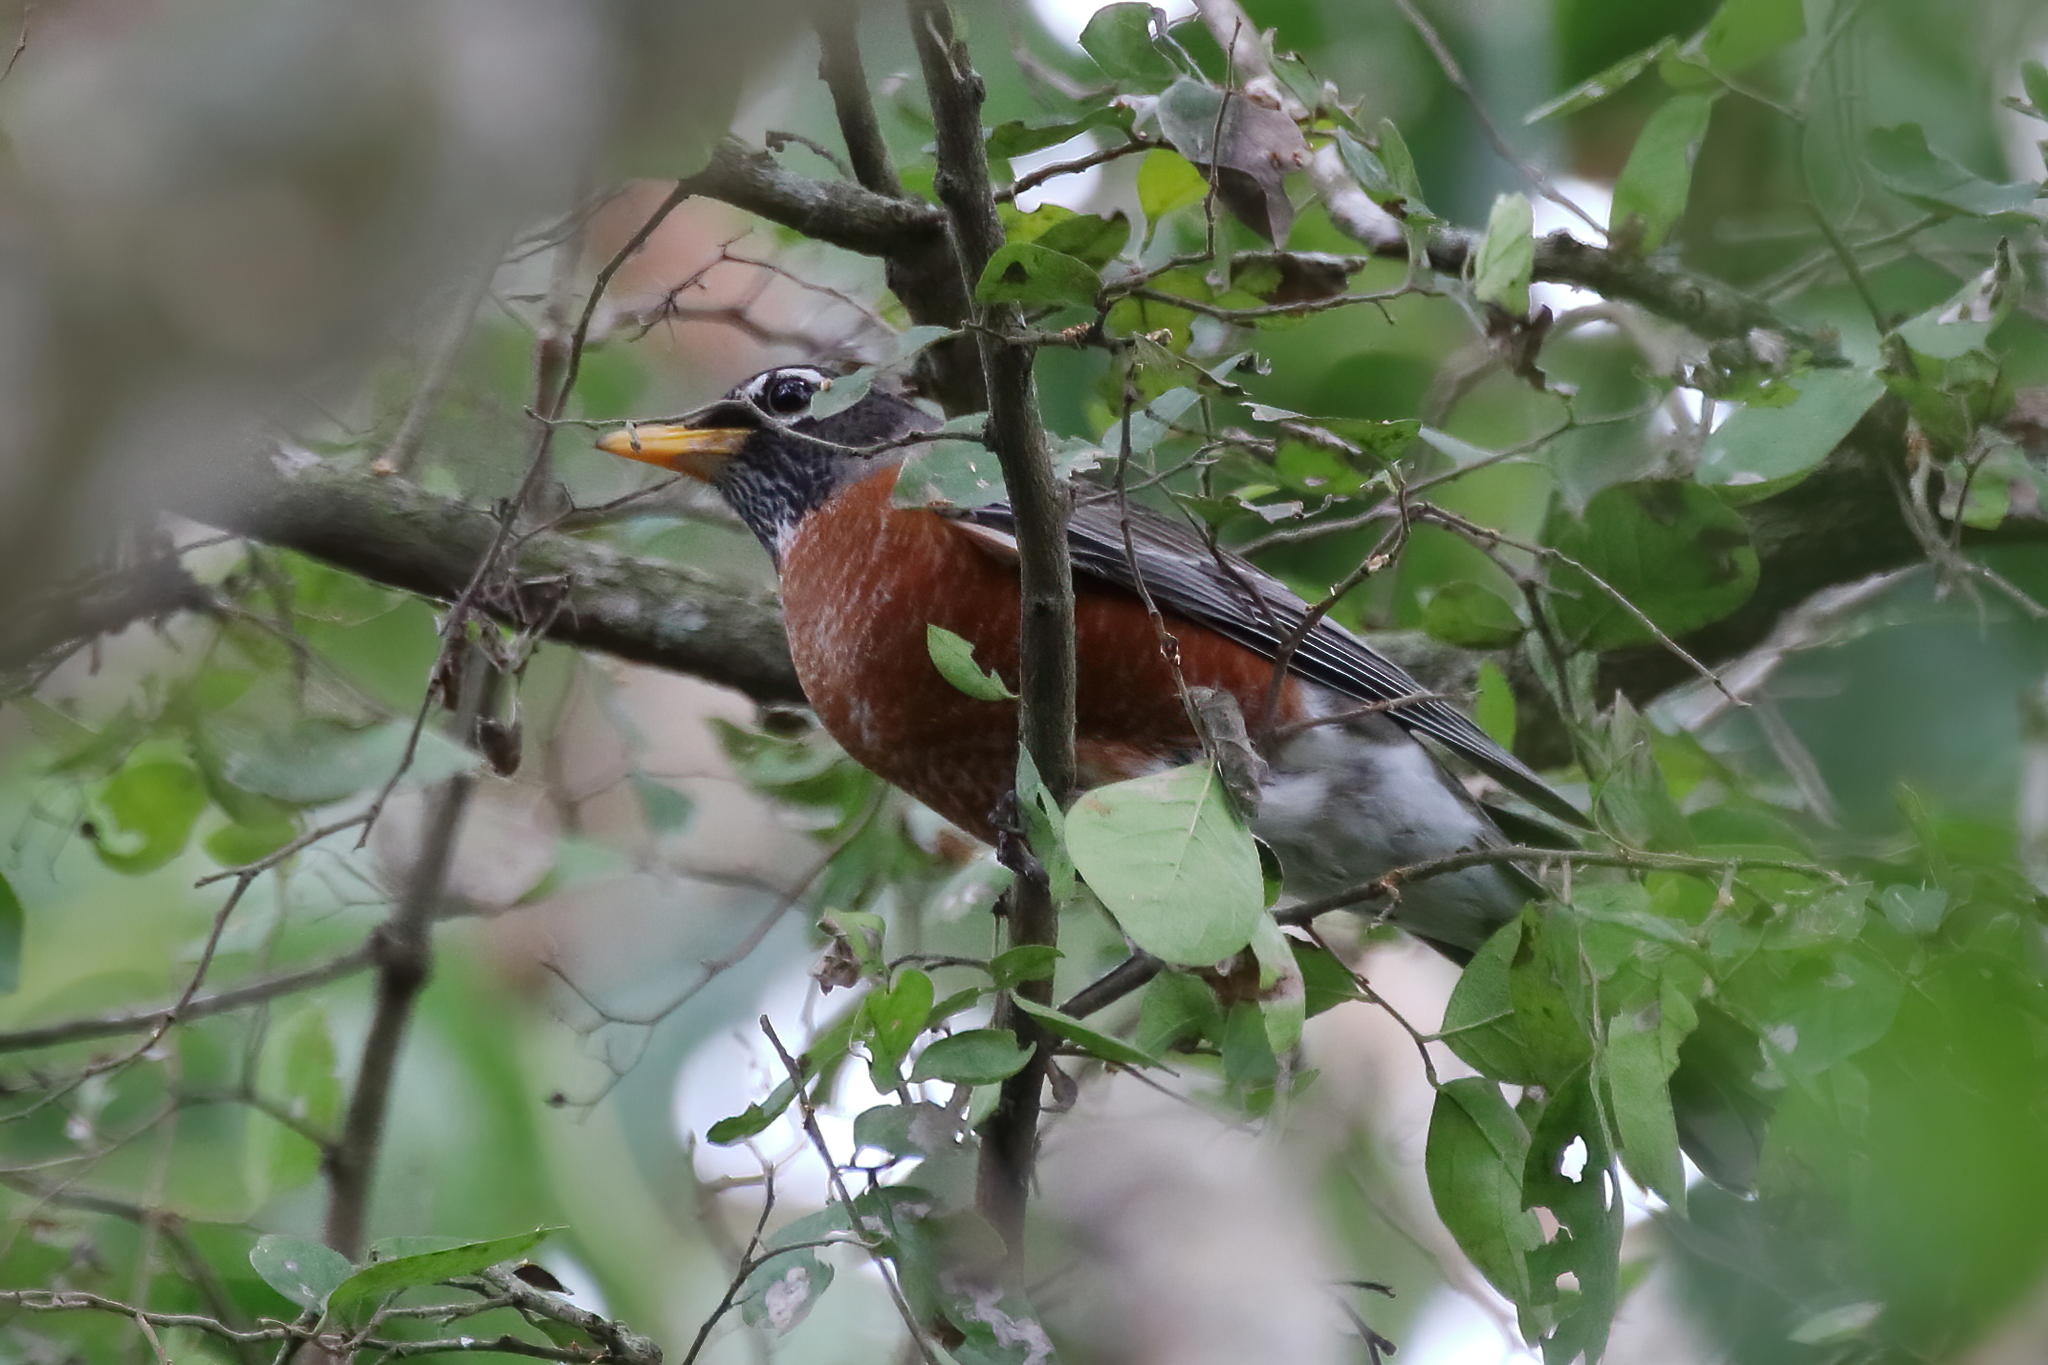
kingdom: Animalia
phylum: Chordata
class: Aves
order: Passeriformes
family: Turdidae
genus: Turdus
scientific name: Turdus migratorius
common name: American robin
